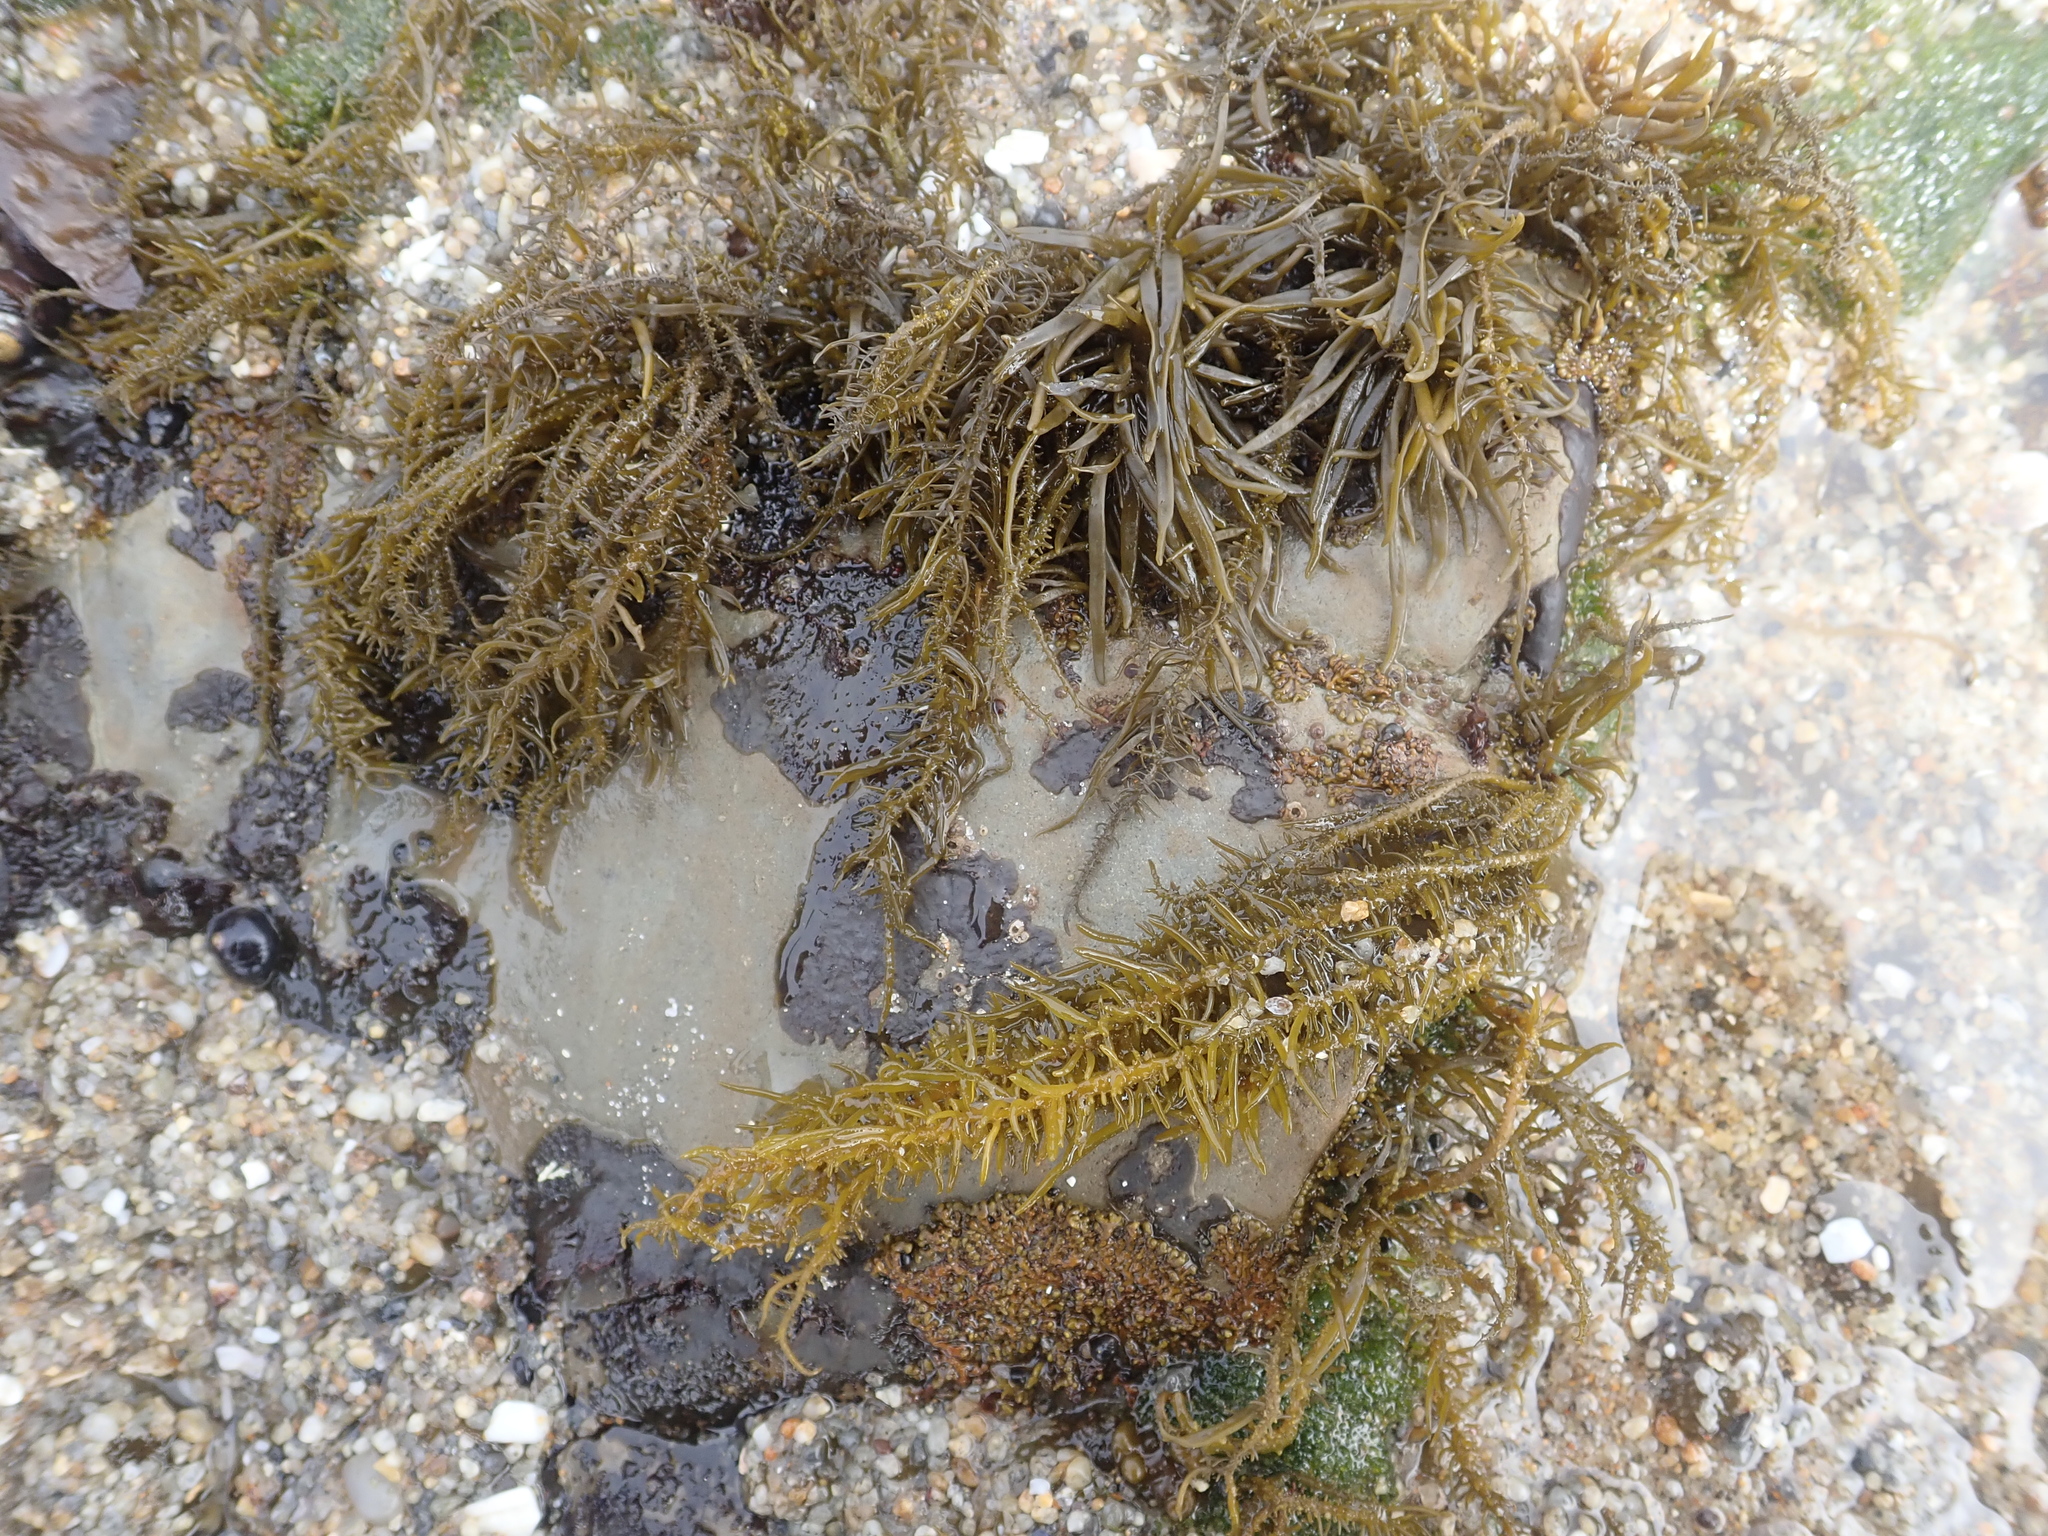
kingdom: Chromista
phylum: Ochrophyta
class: Phaeophyceae
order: Scytosiphonales
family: Scytosiphonaceae
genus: Analipus
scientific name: Analipus japonicus
